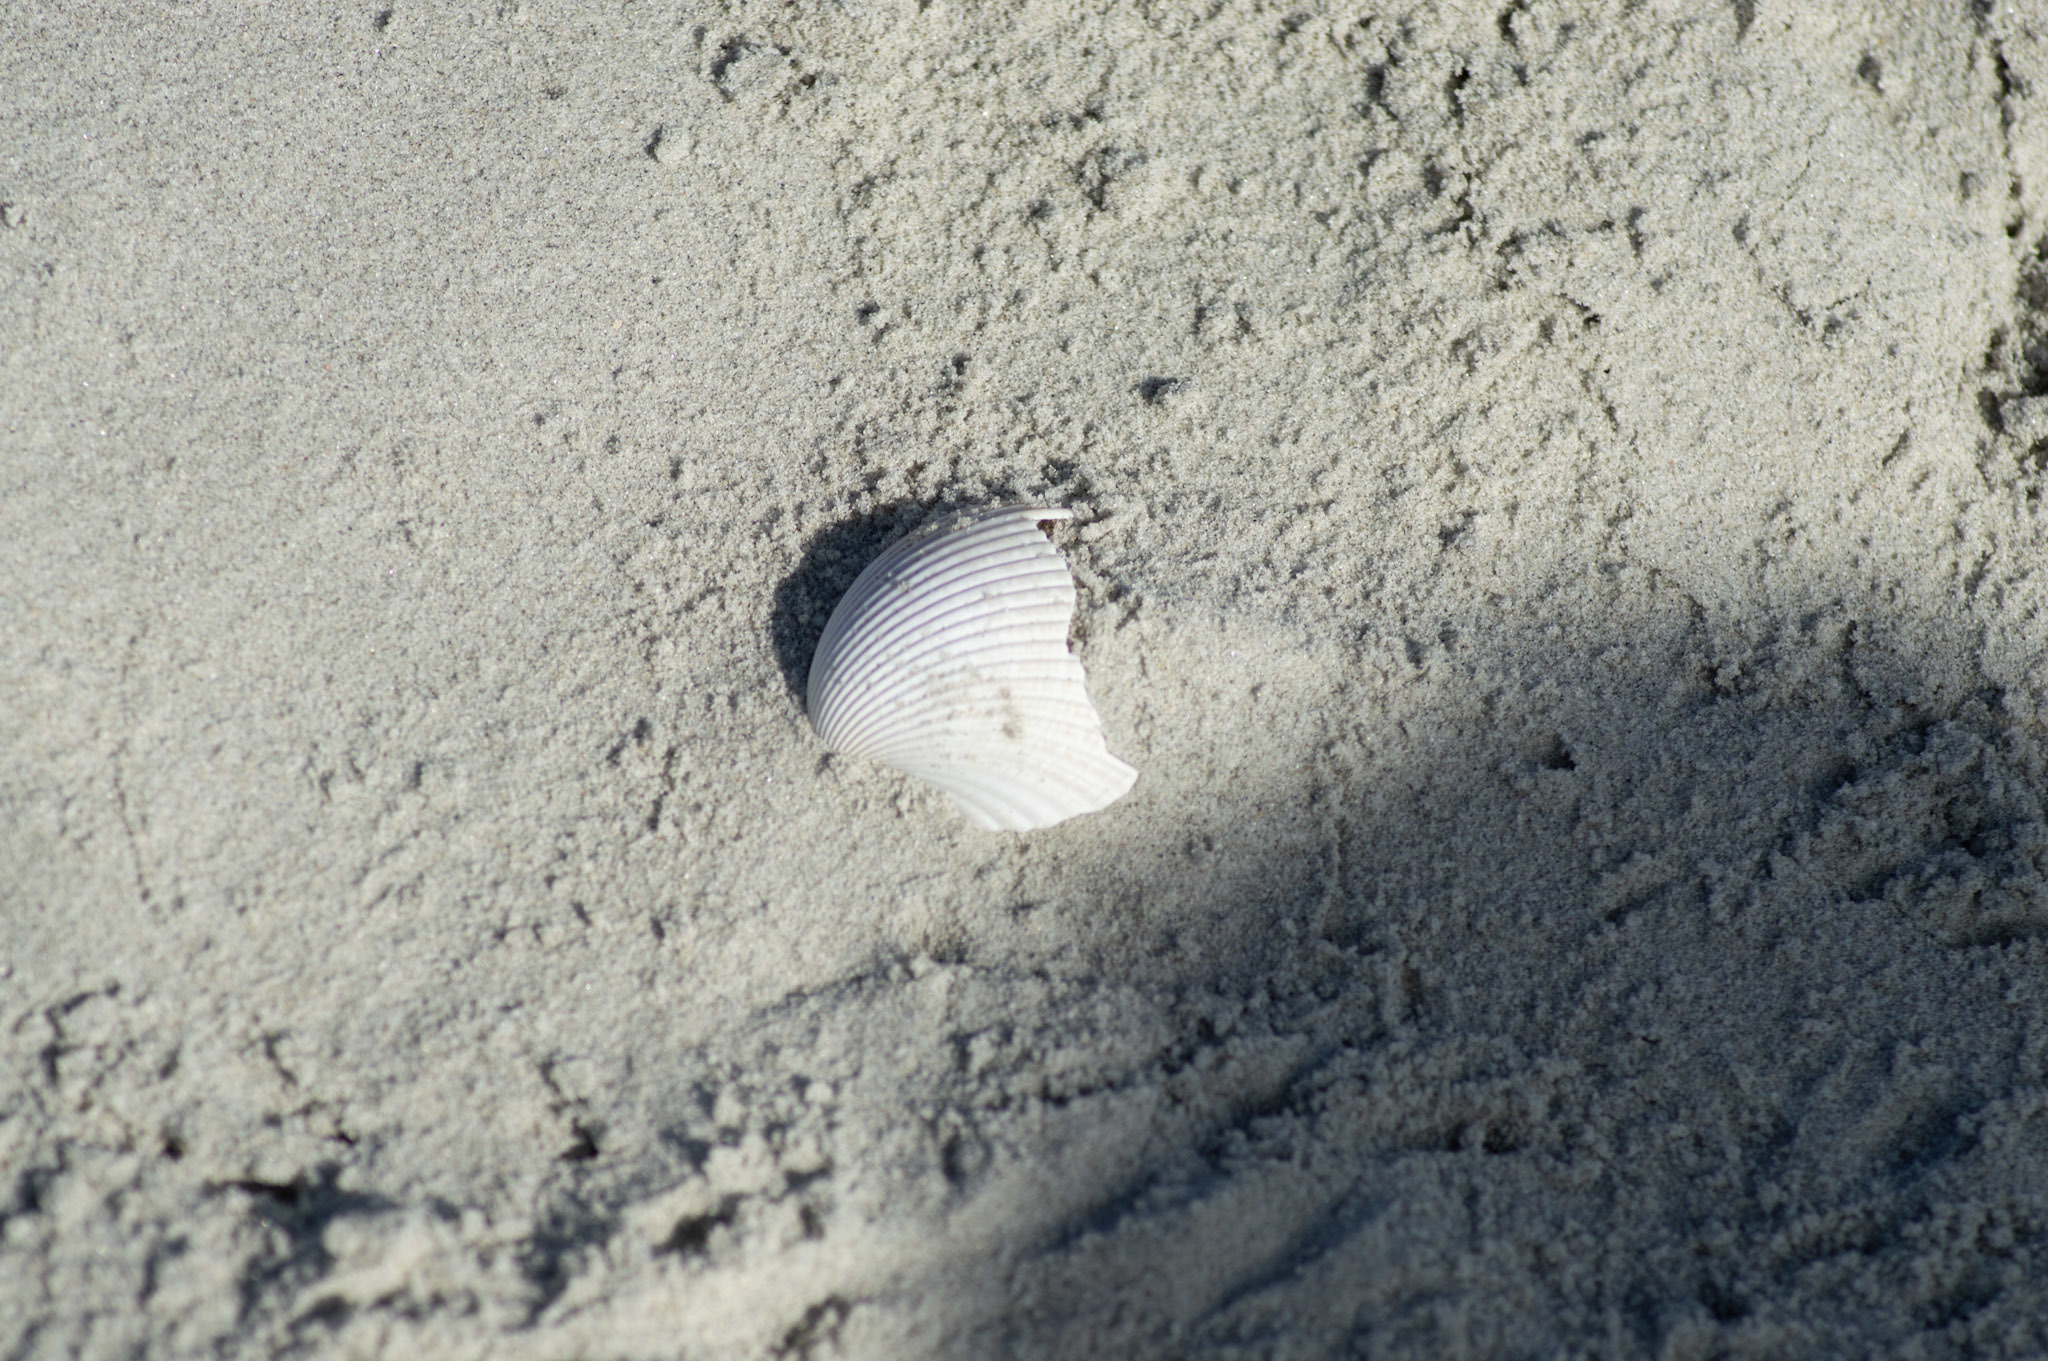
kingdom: Animalia
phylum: Mollusca
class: Bivalvia
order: Cardiida
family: Cardiidae
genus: Dinocardium
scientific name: Dinocardium robustum
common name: Atlantic giant cockle
